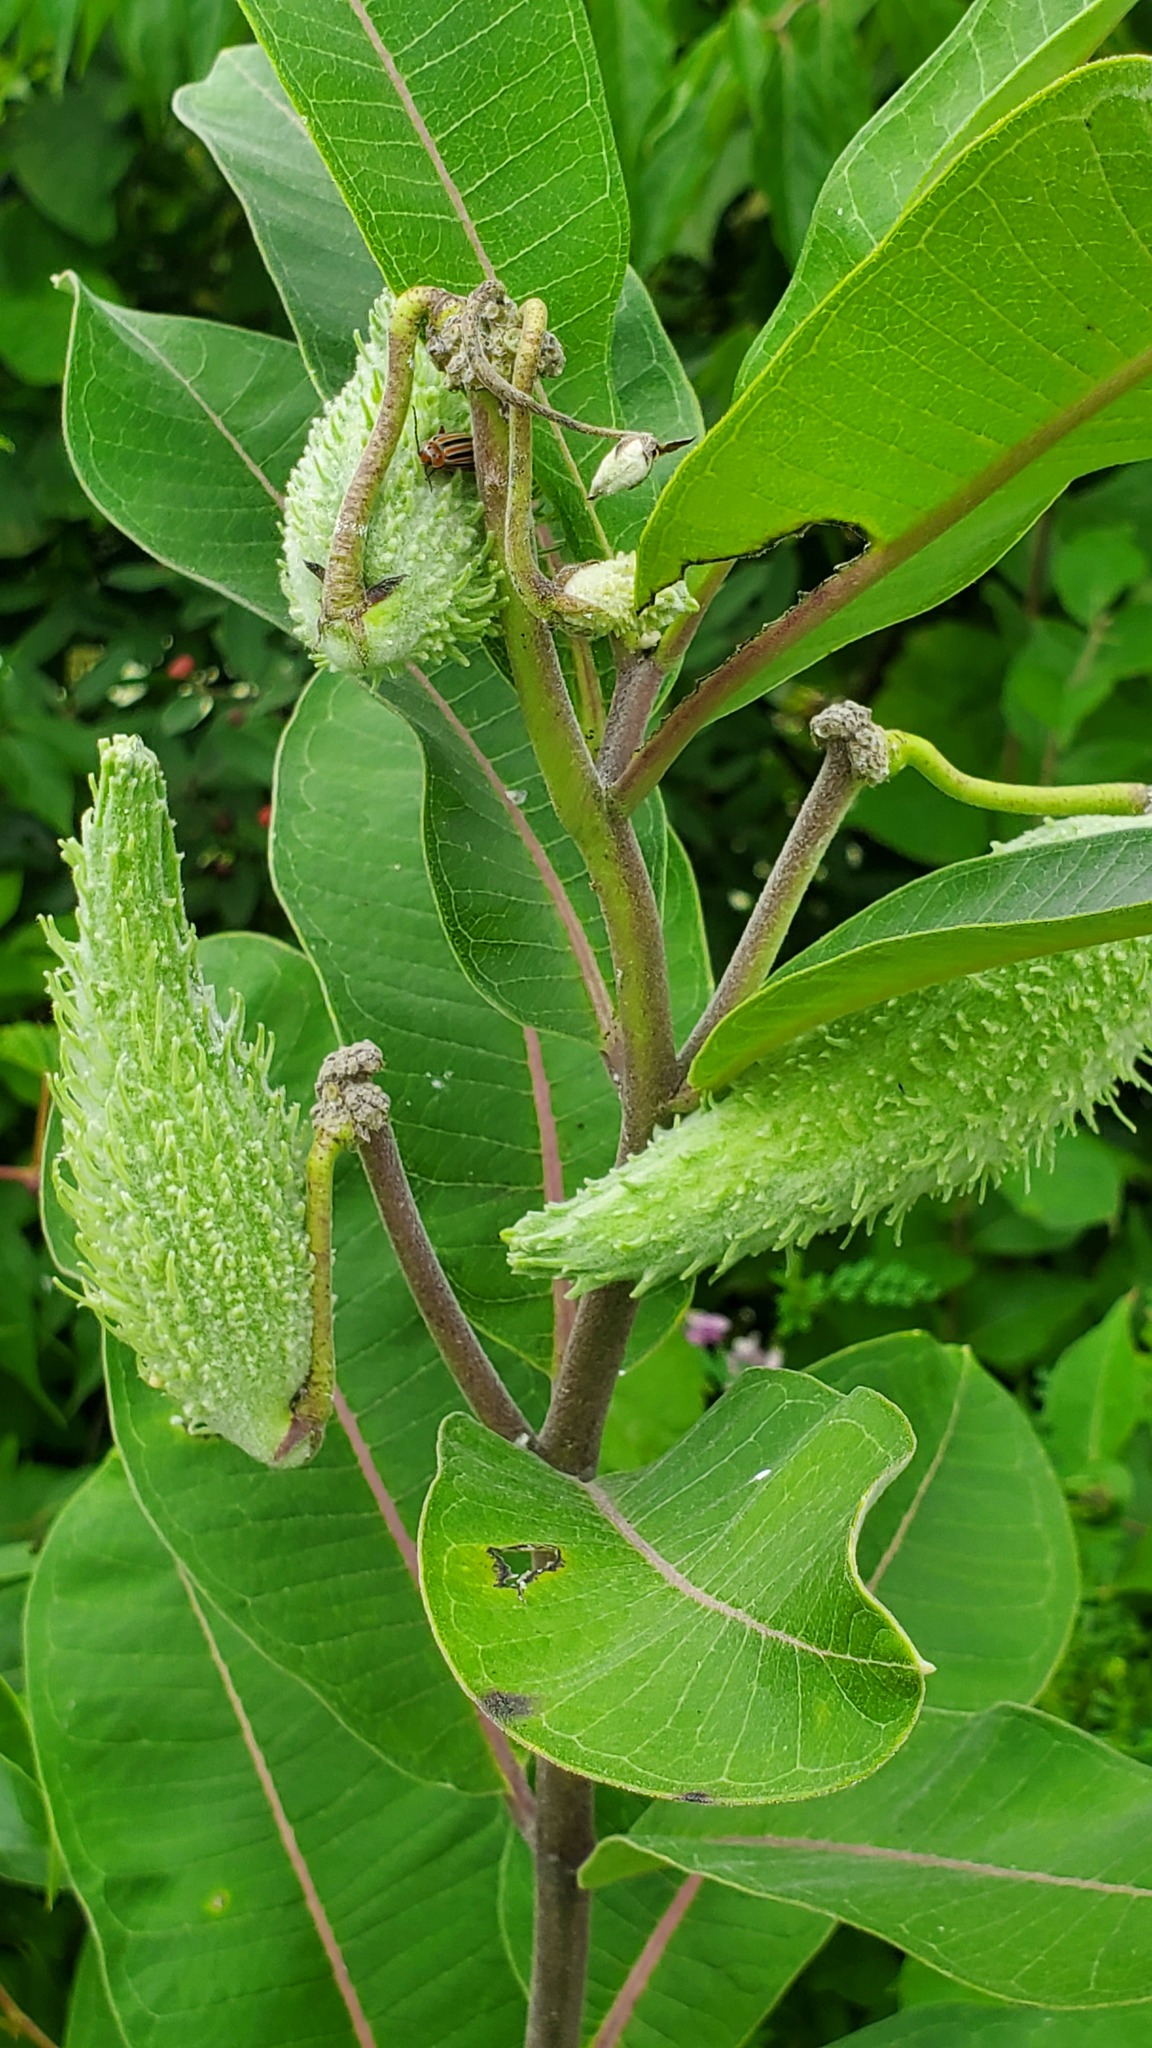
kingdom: Plantae
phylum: Tracheophyta
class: Magnoliopsida
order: Gentianales
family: Apocynaceae
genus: Asclepias
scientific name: Asclepias syriaca
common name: Common milkweed
